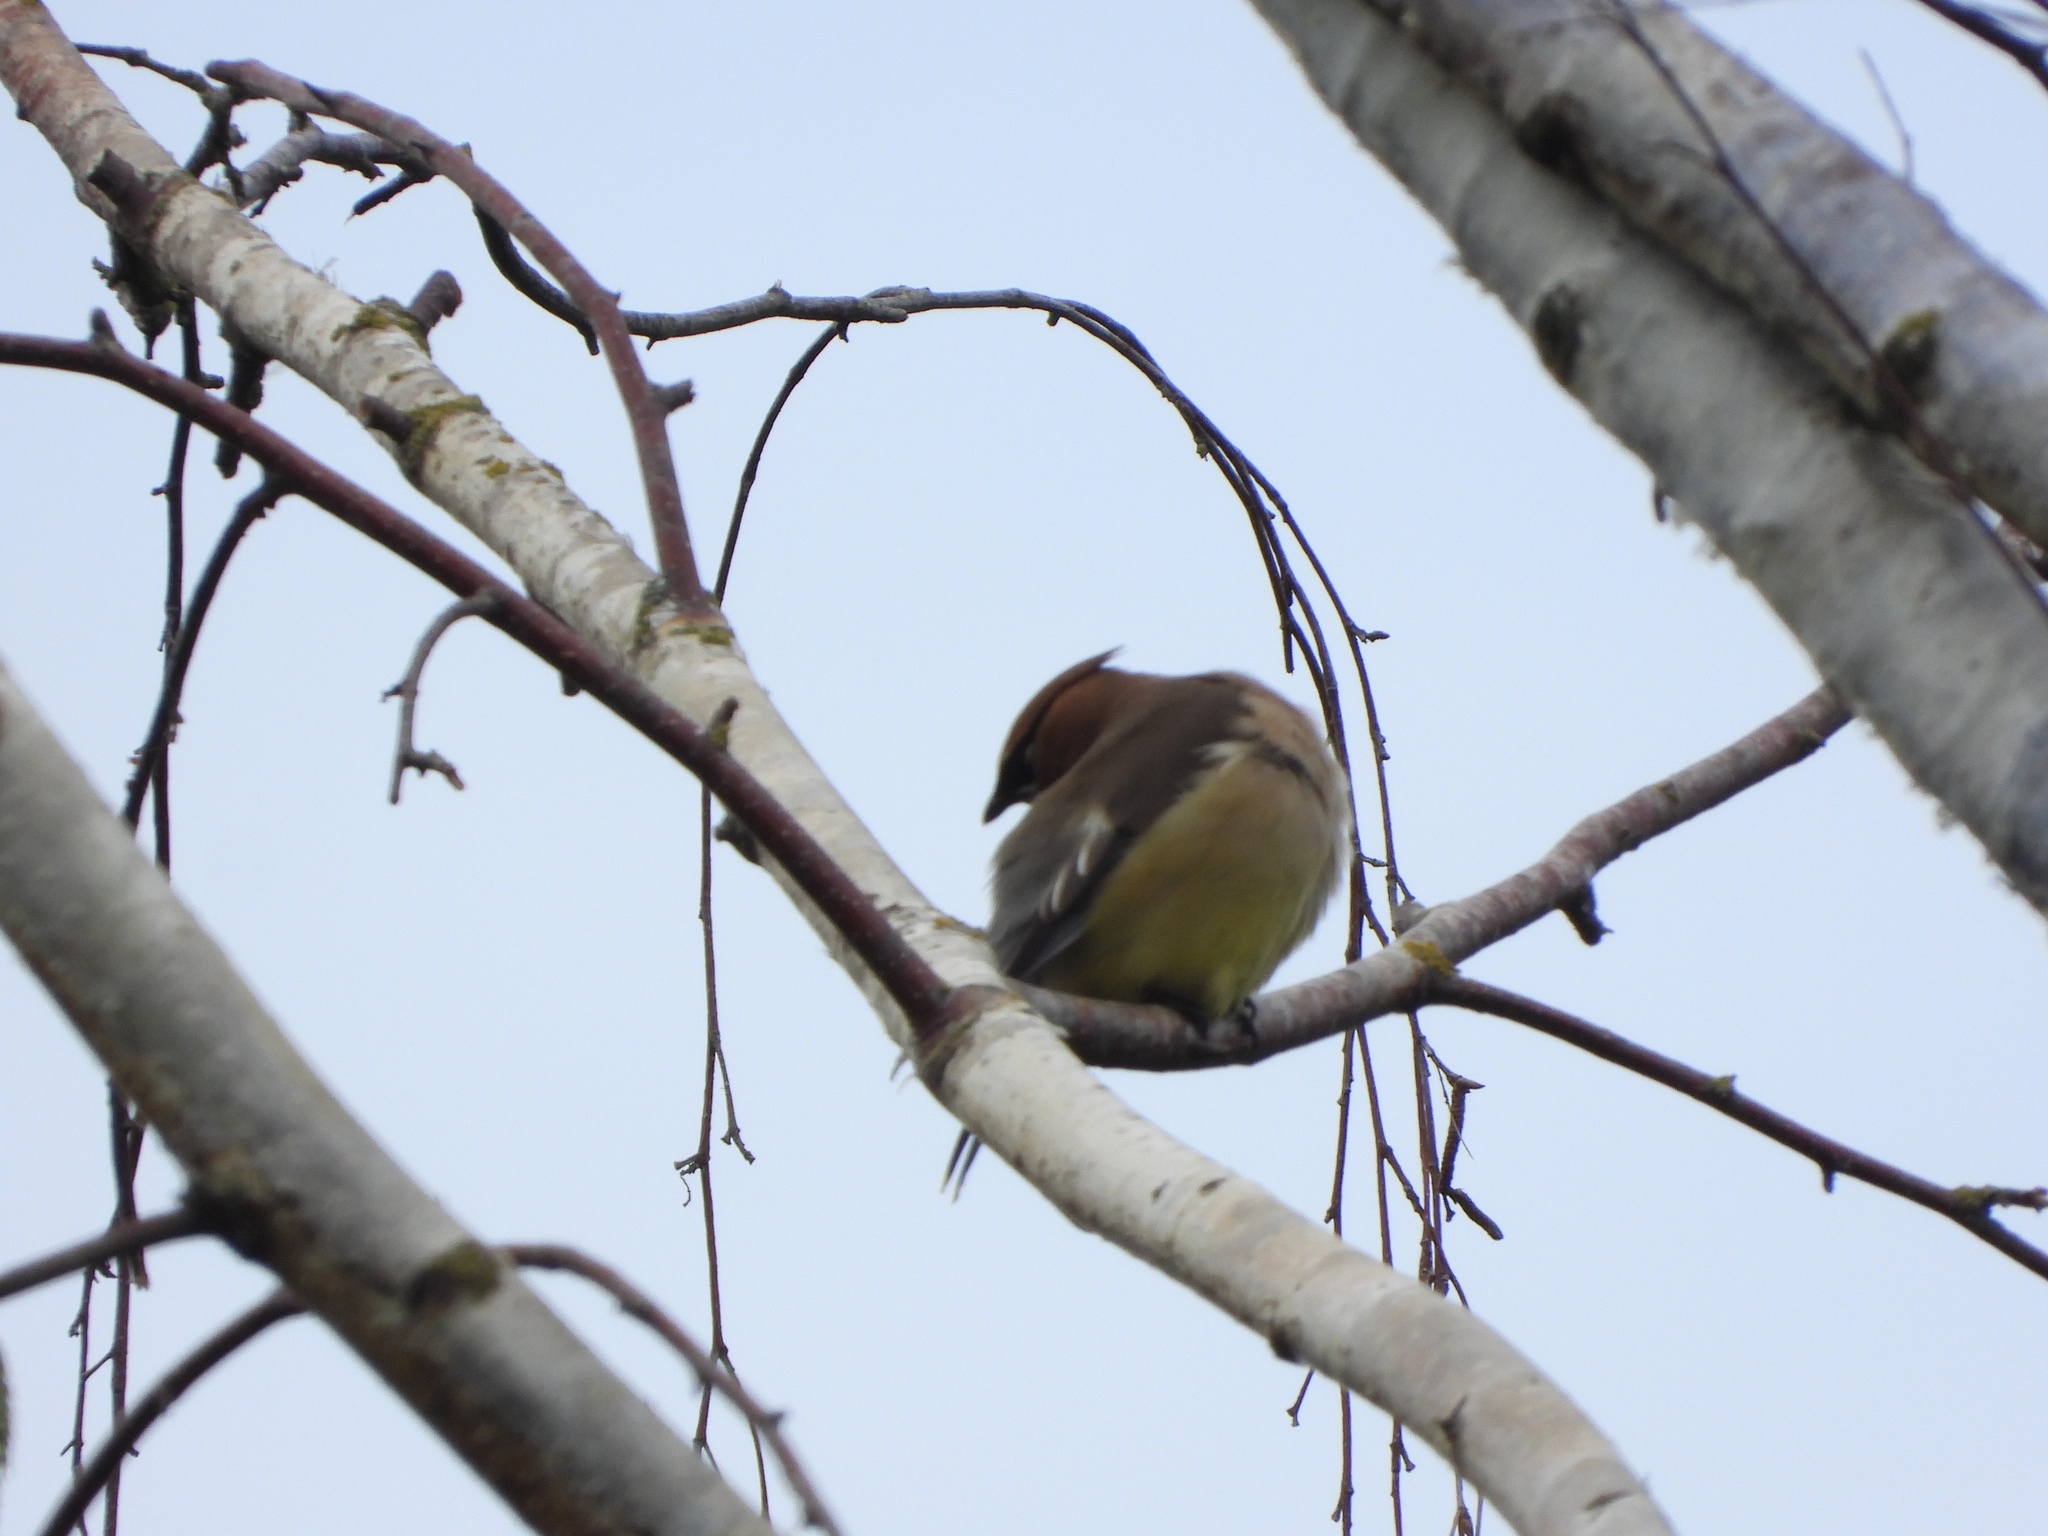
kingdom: Animalia
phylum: Chordata
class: Aves
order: Passeriformes
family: Bombycillidae
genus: Bombycilla
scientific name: Bombycilla cedrorum
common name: Cedar waxwing
